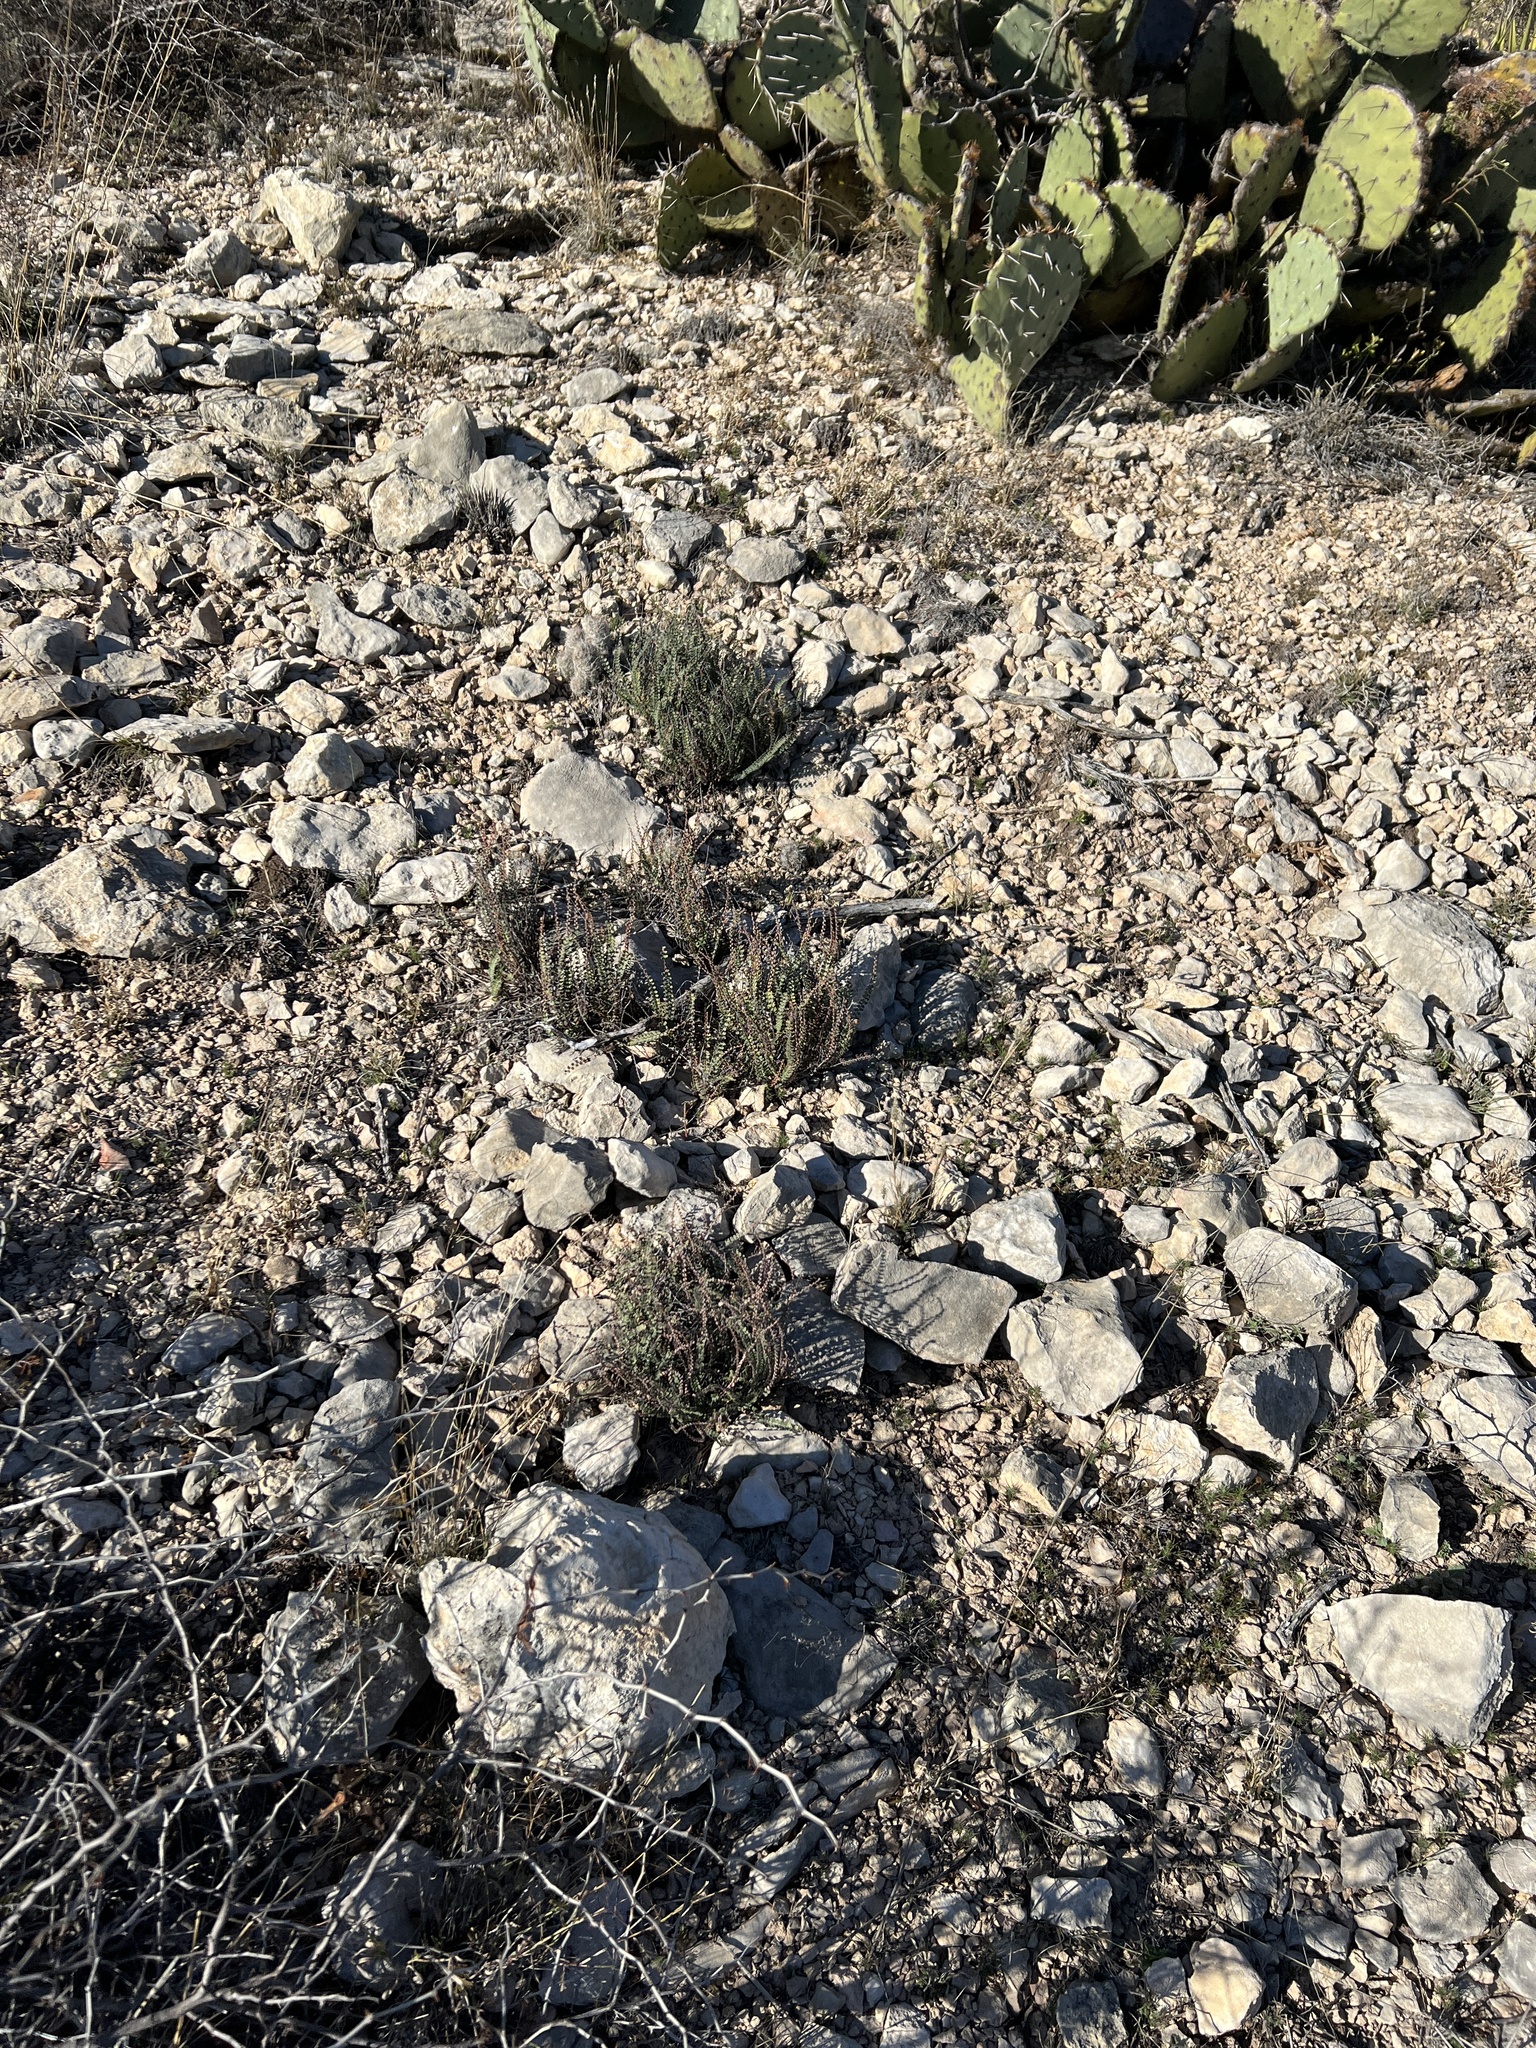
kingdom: Plantae
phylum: Tracheophyta
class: Polypodiopsida
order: Polypodiales
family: Pteridaceae
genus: Astrolepis
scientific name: Astrolepis cochisensis
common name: Scaly cloak fern
